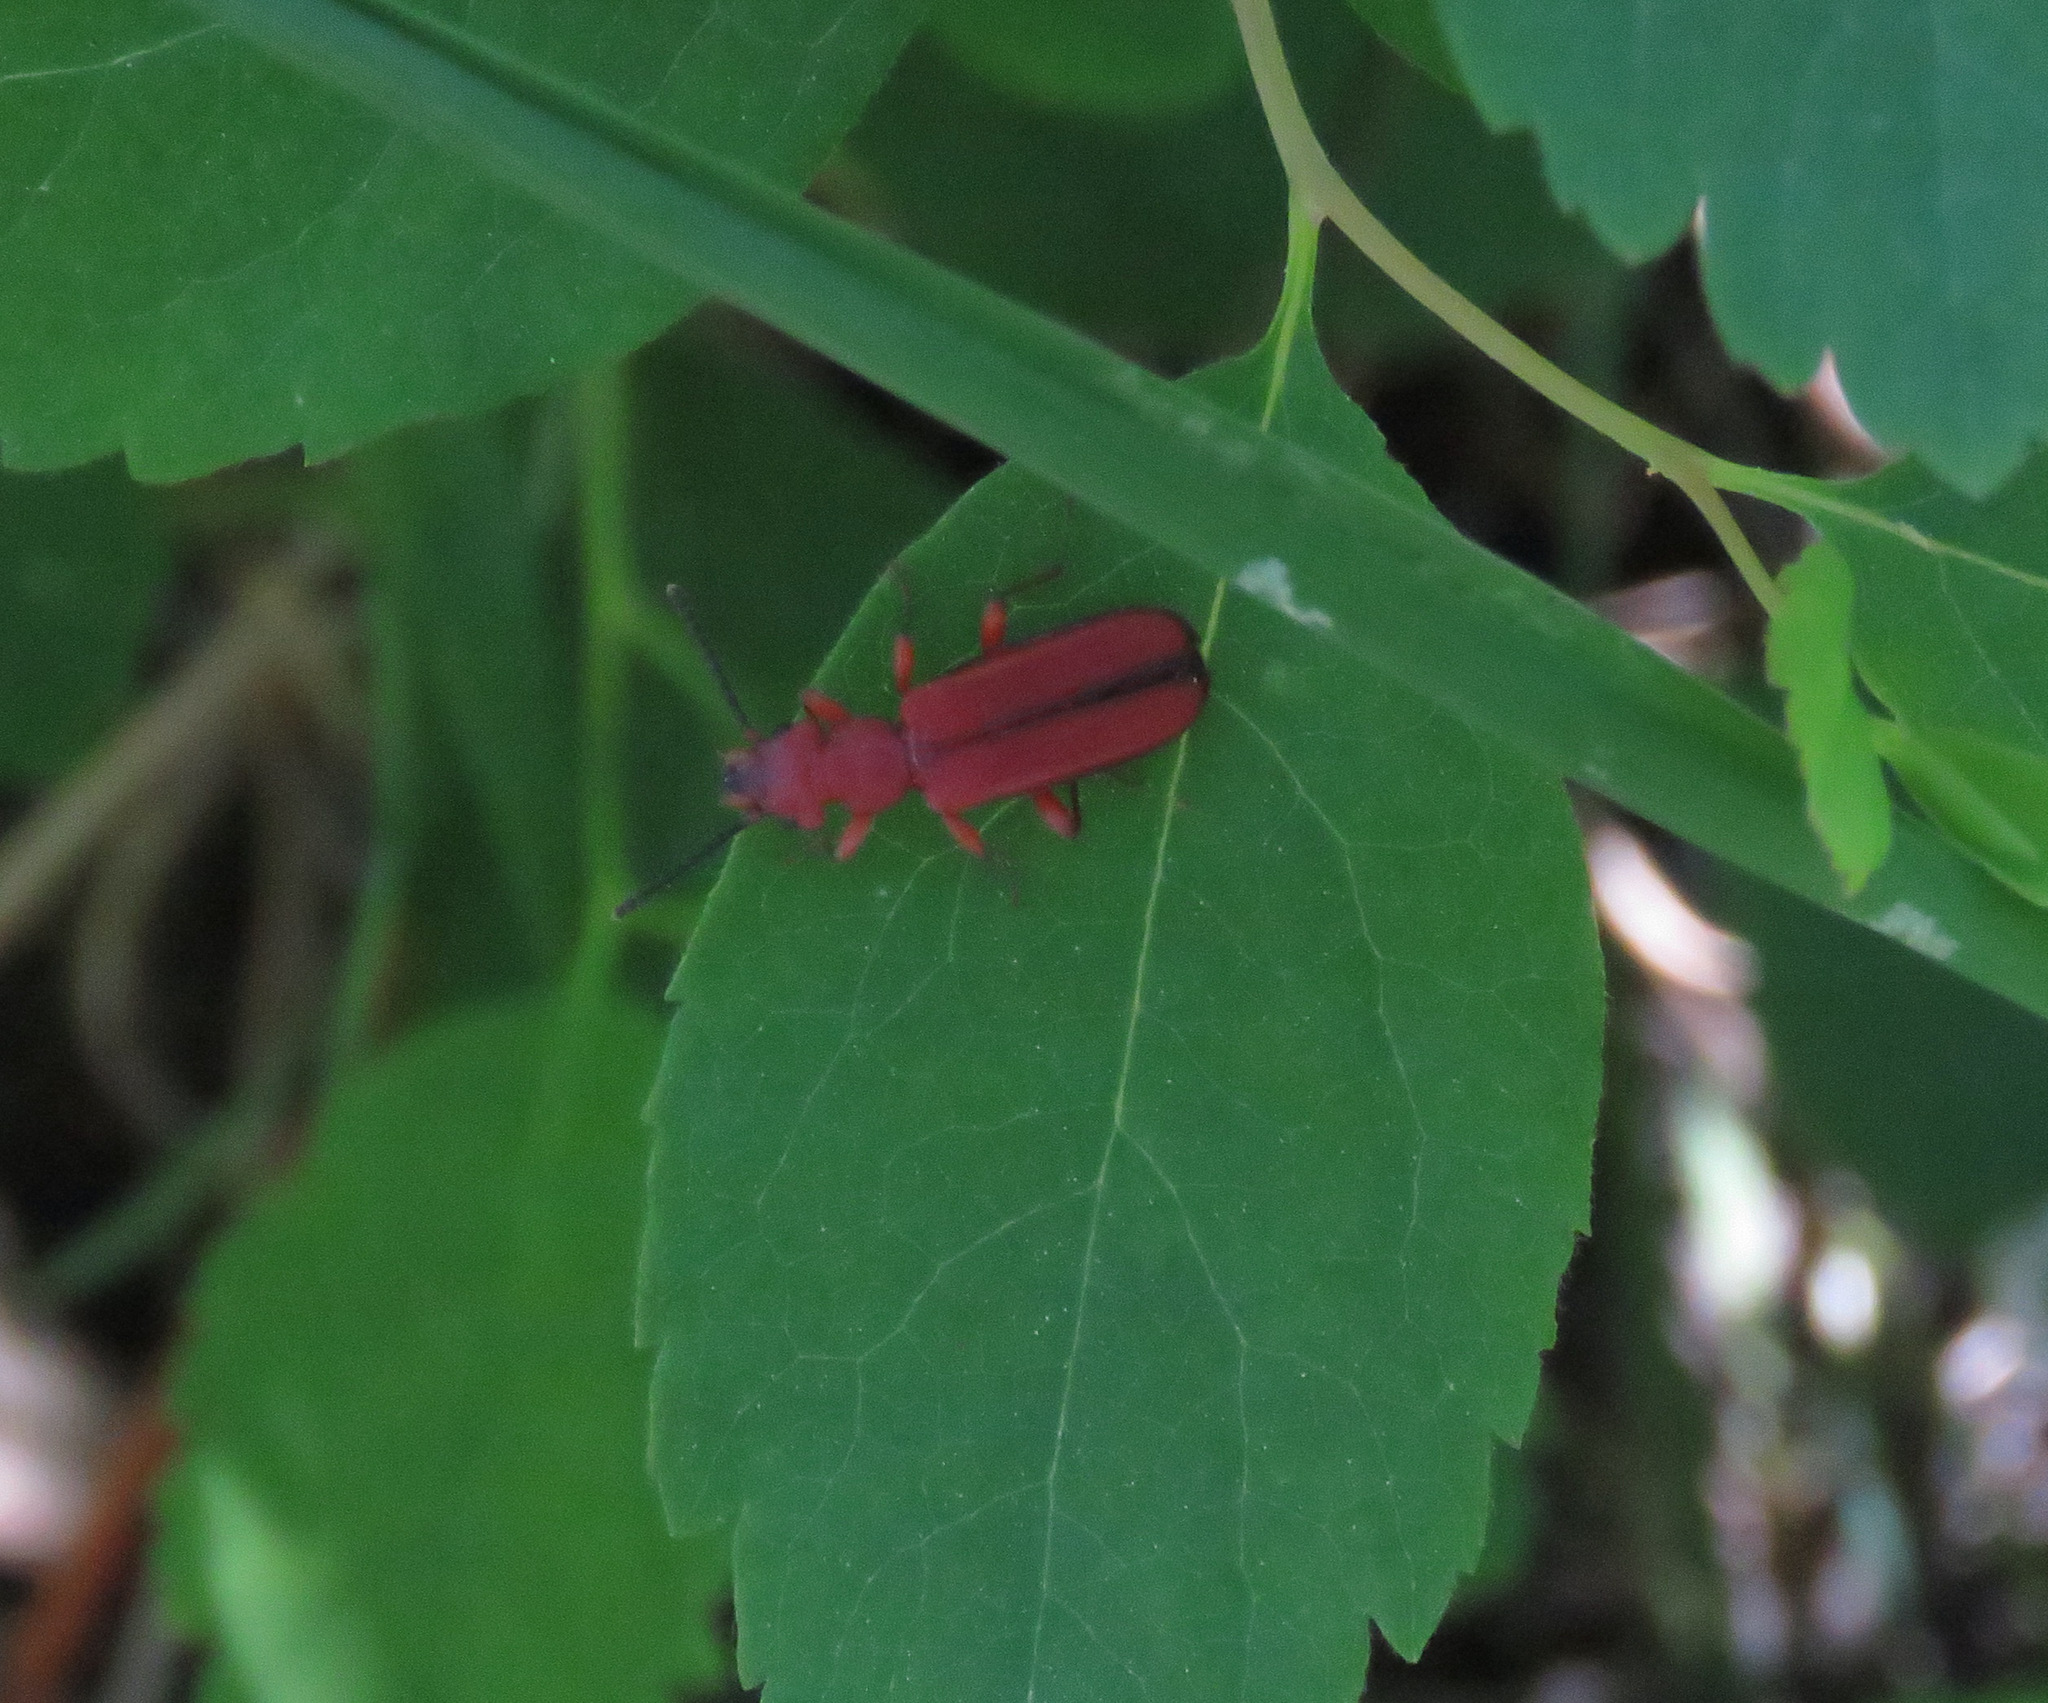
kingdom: Animalia
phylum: Arthropoda
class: Insecta
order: Coleoptera
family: Cucujidae
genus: Cucujus
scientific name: Cucujus clavipes
